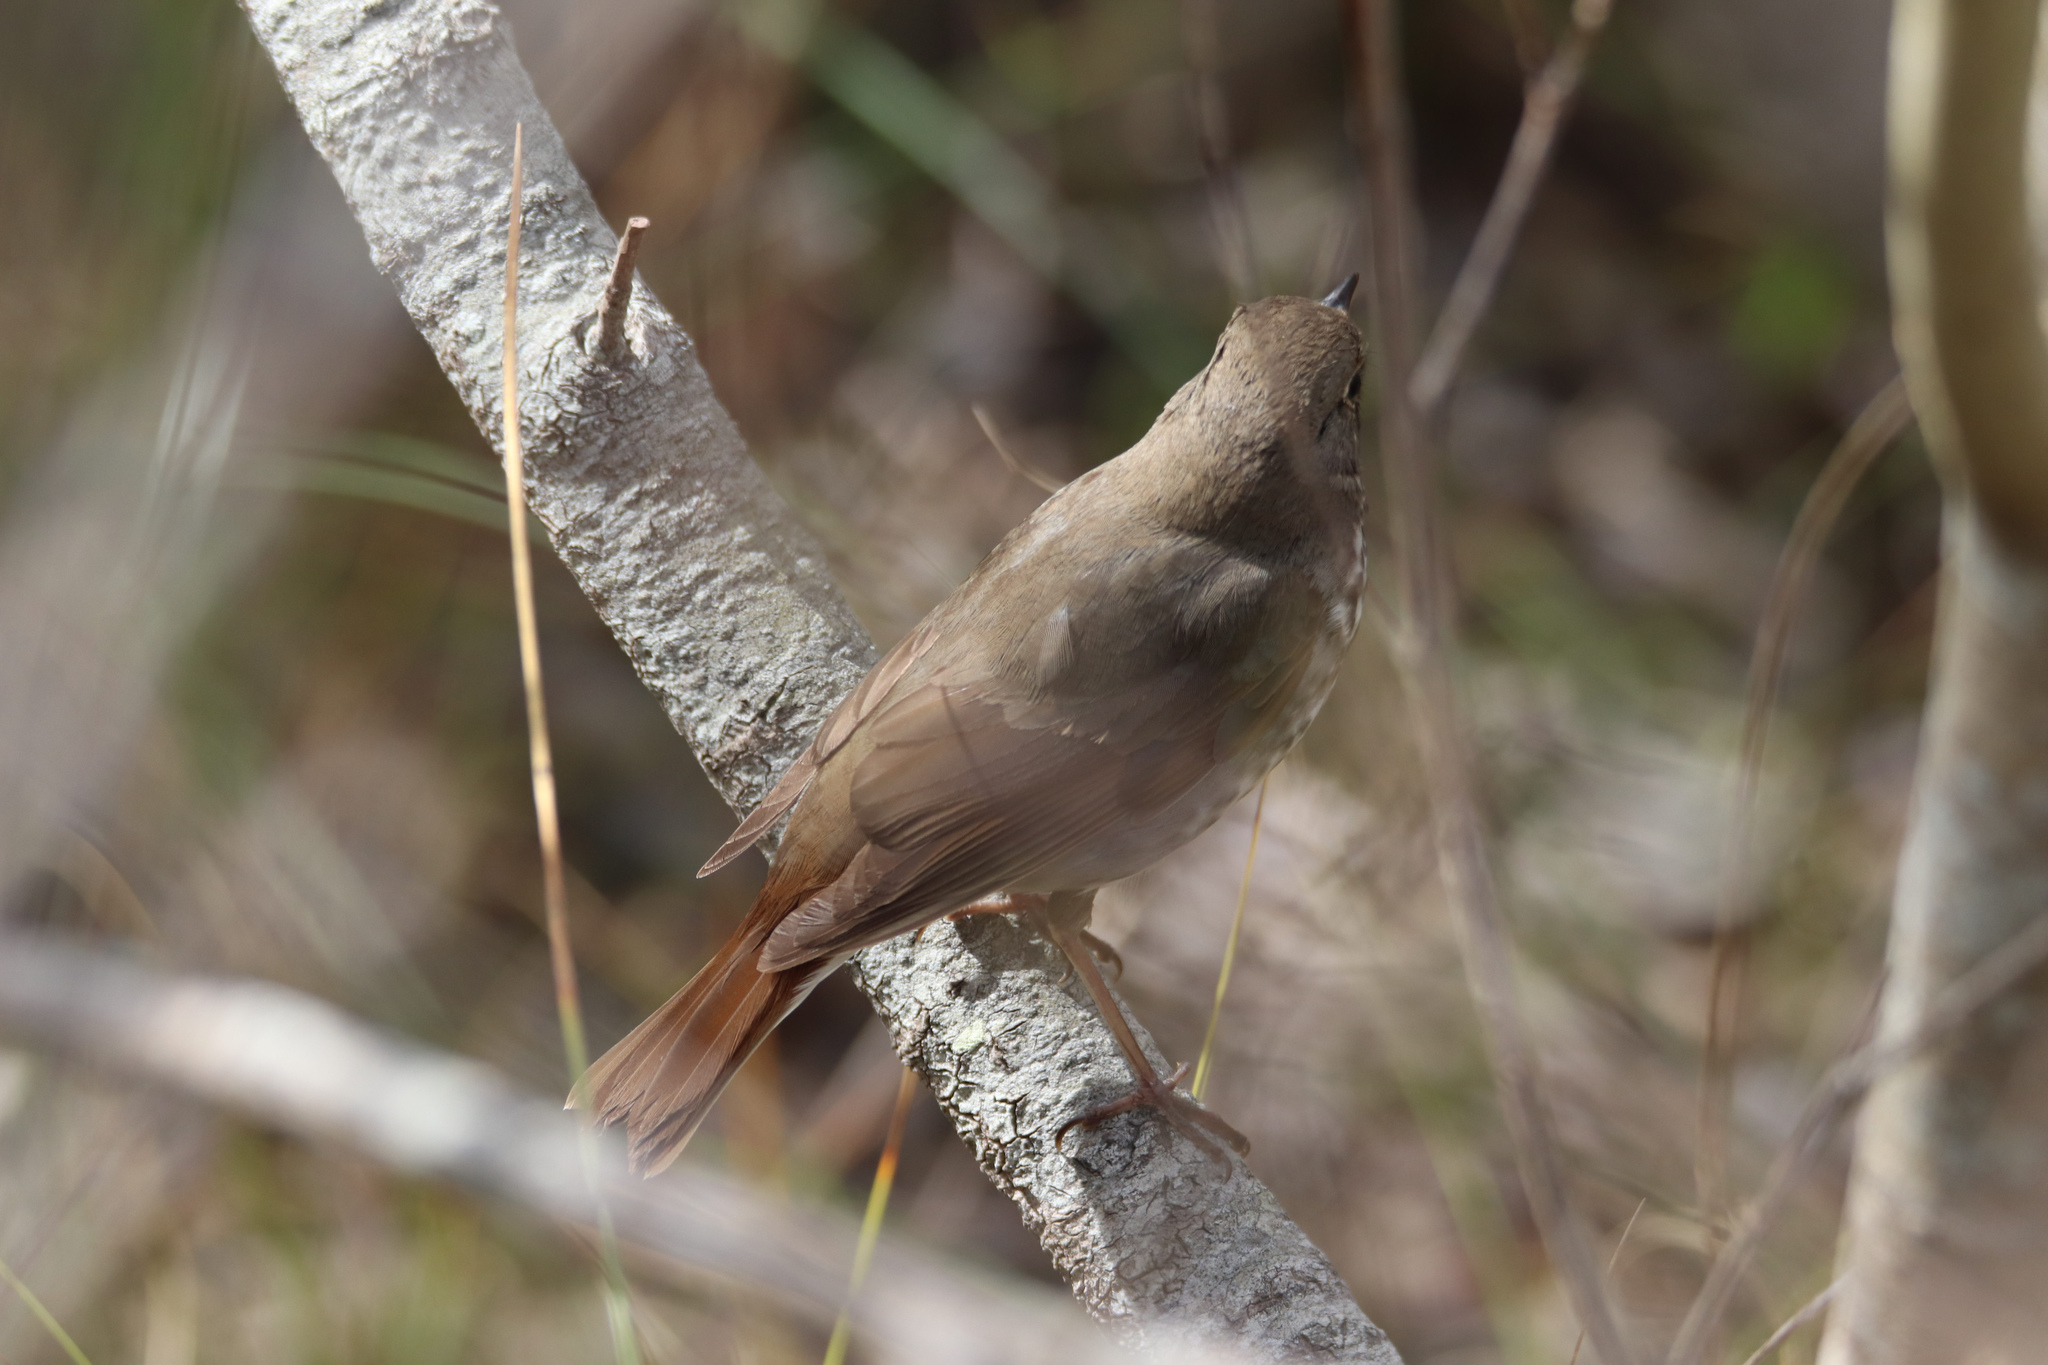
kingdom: Animalia
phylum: Chordata
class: Aves
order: Passeriformes
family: Turdidae
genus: Catharus
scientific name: Catharus guttatus
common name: Hermit thrush
